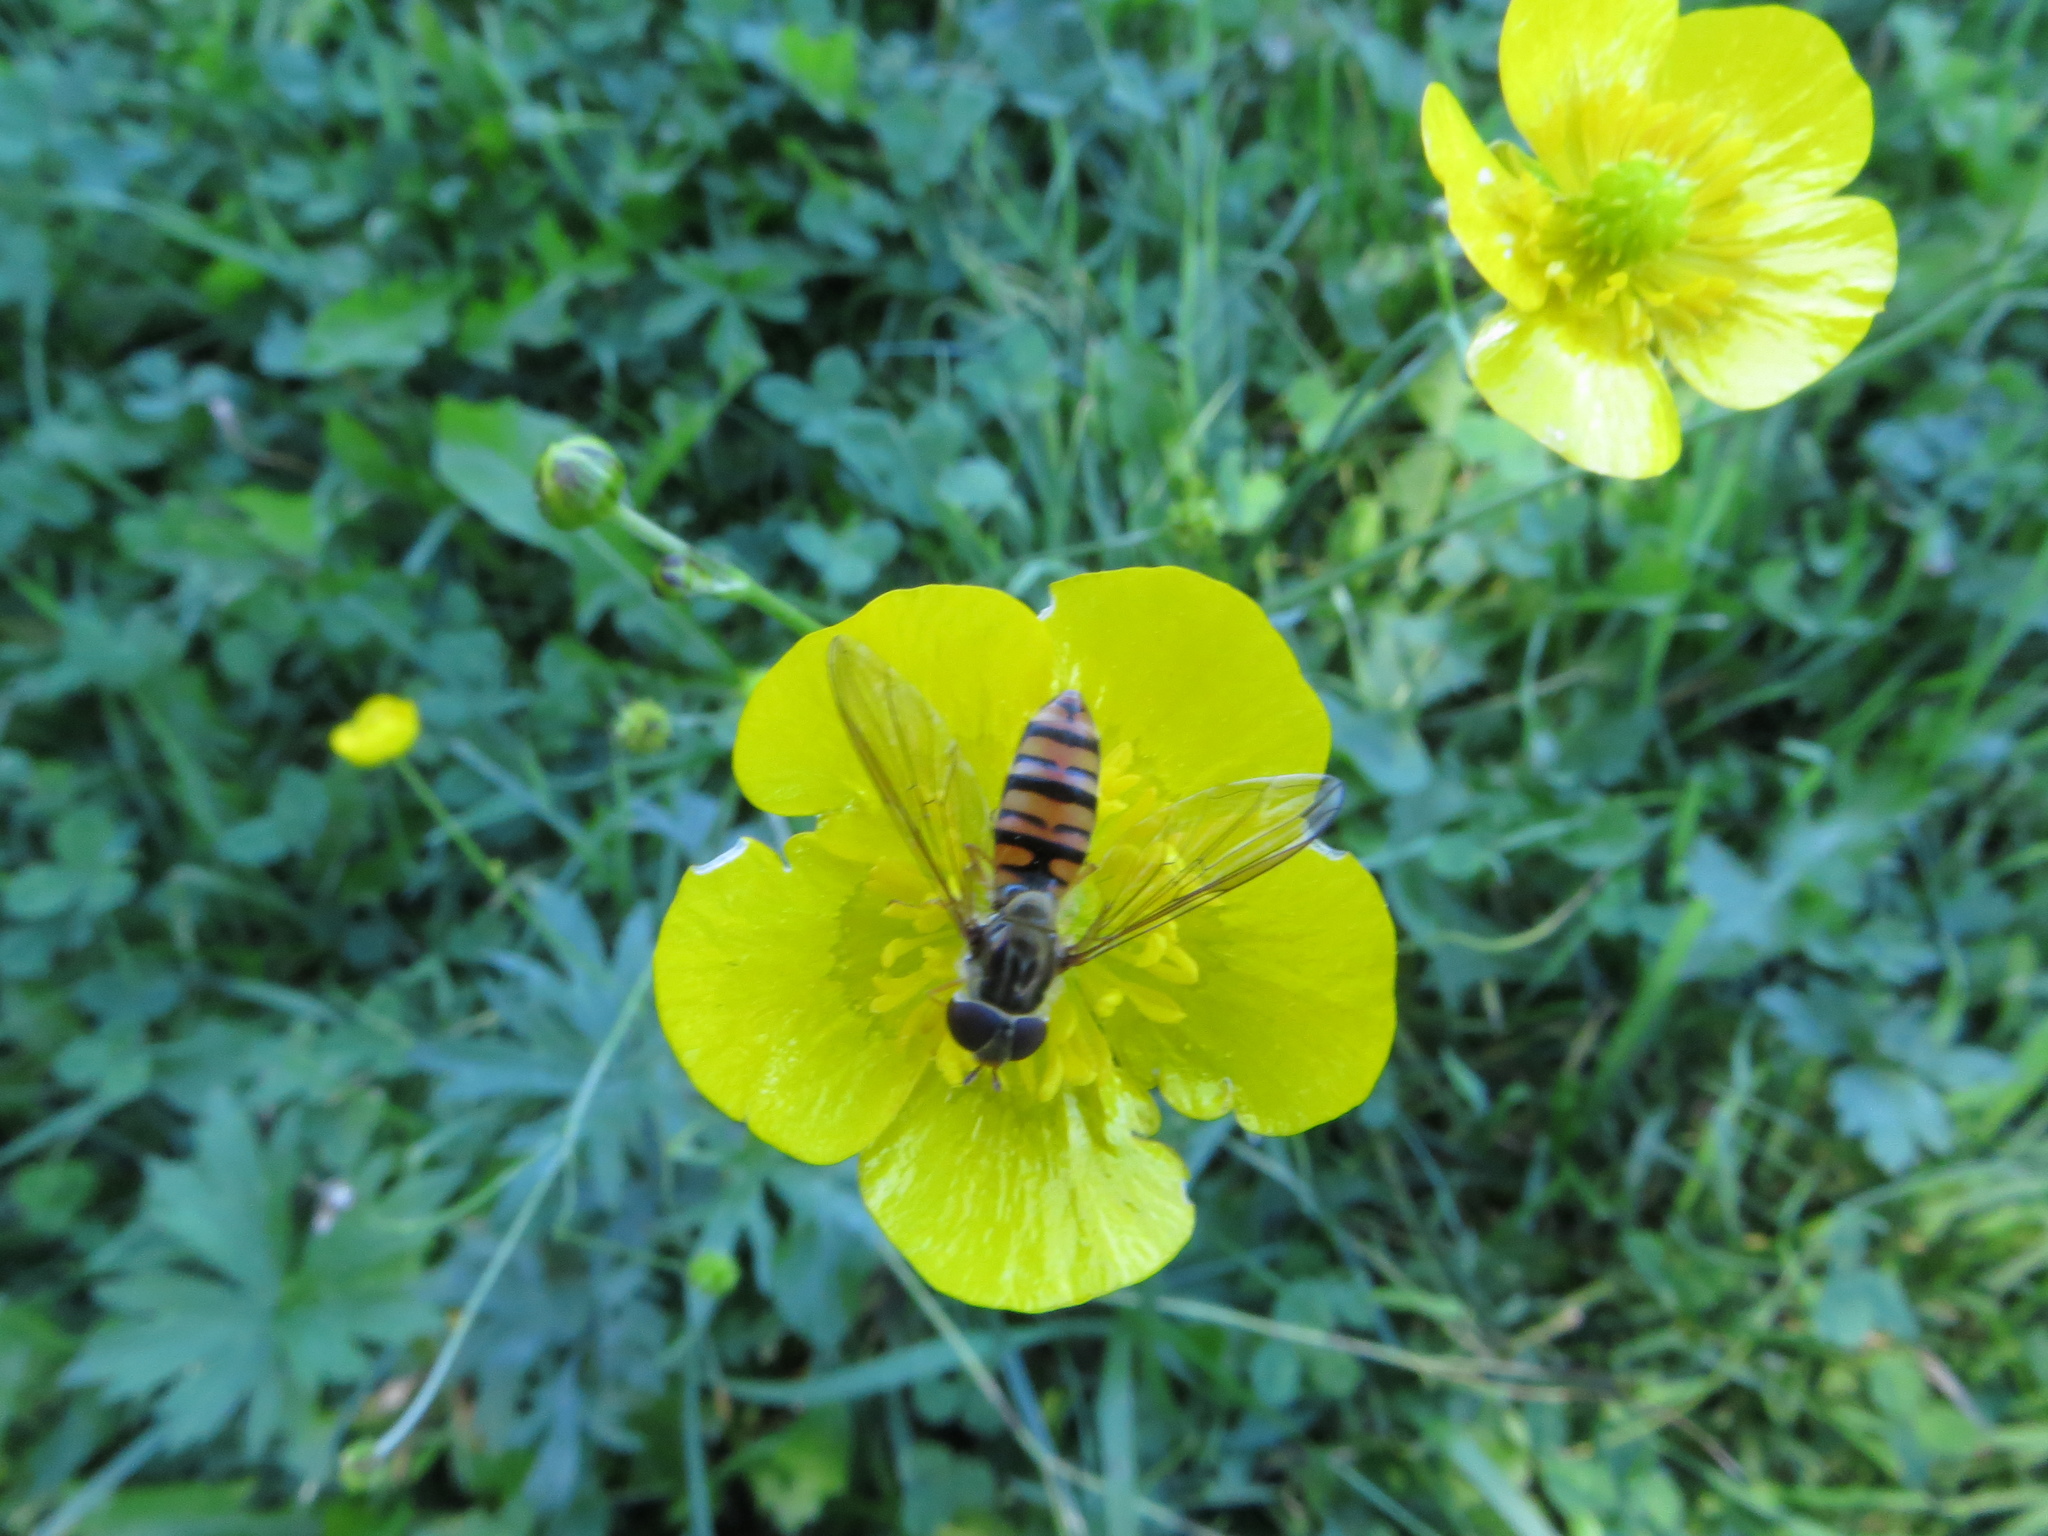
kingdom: Animalia
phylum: Arthropoda
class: Insecta
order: Diptera
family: Syrphidae
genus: Episyrphus
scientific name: Episyrphus balteatus
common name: Marmalade hoverfly
